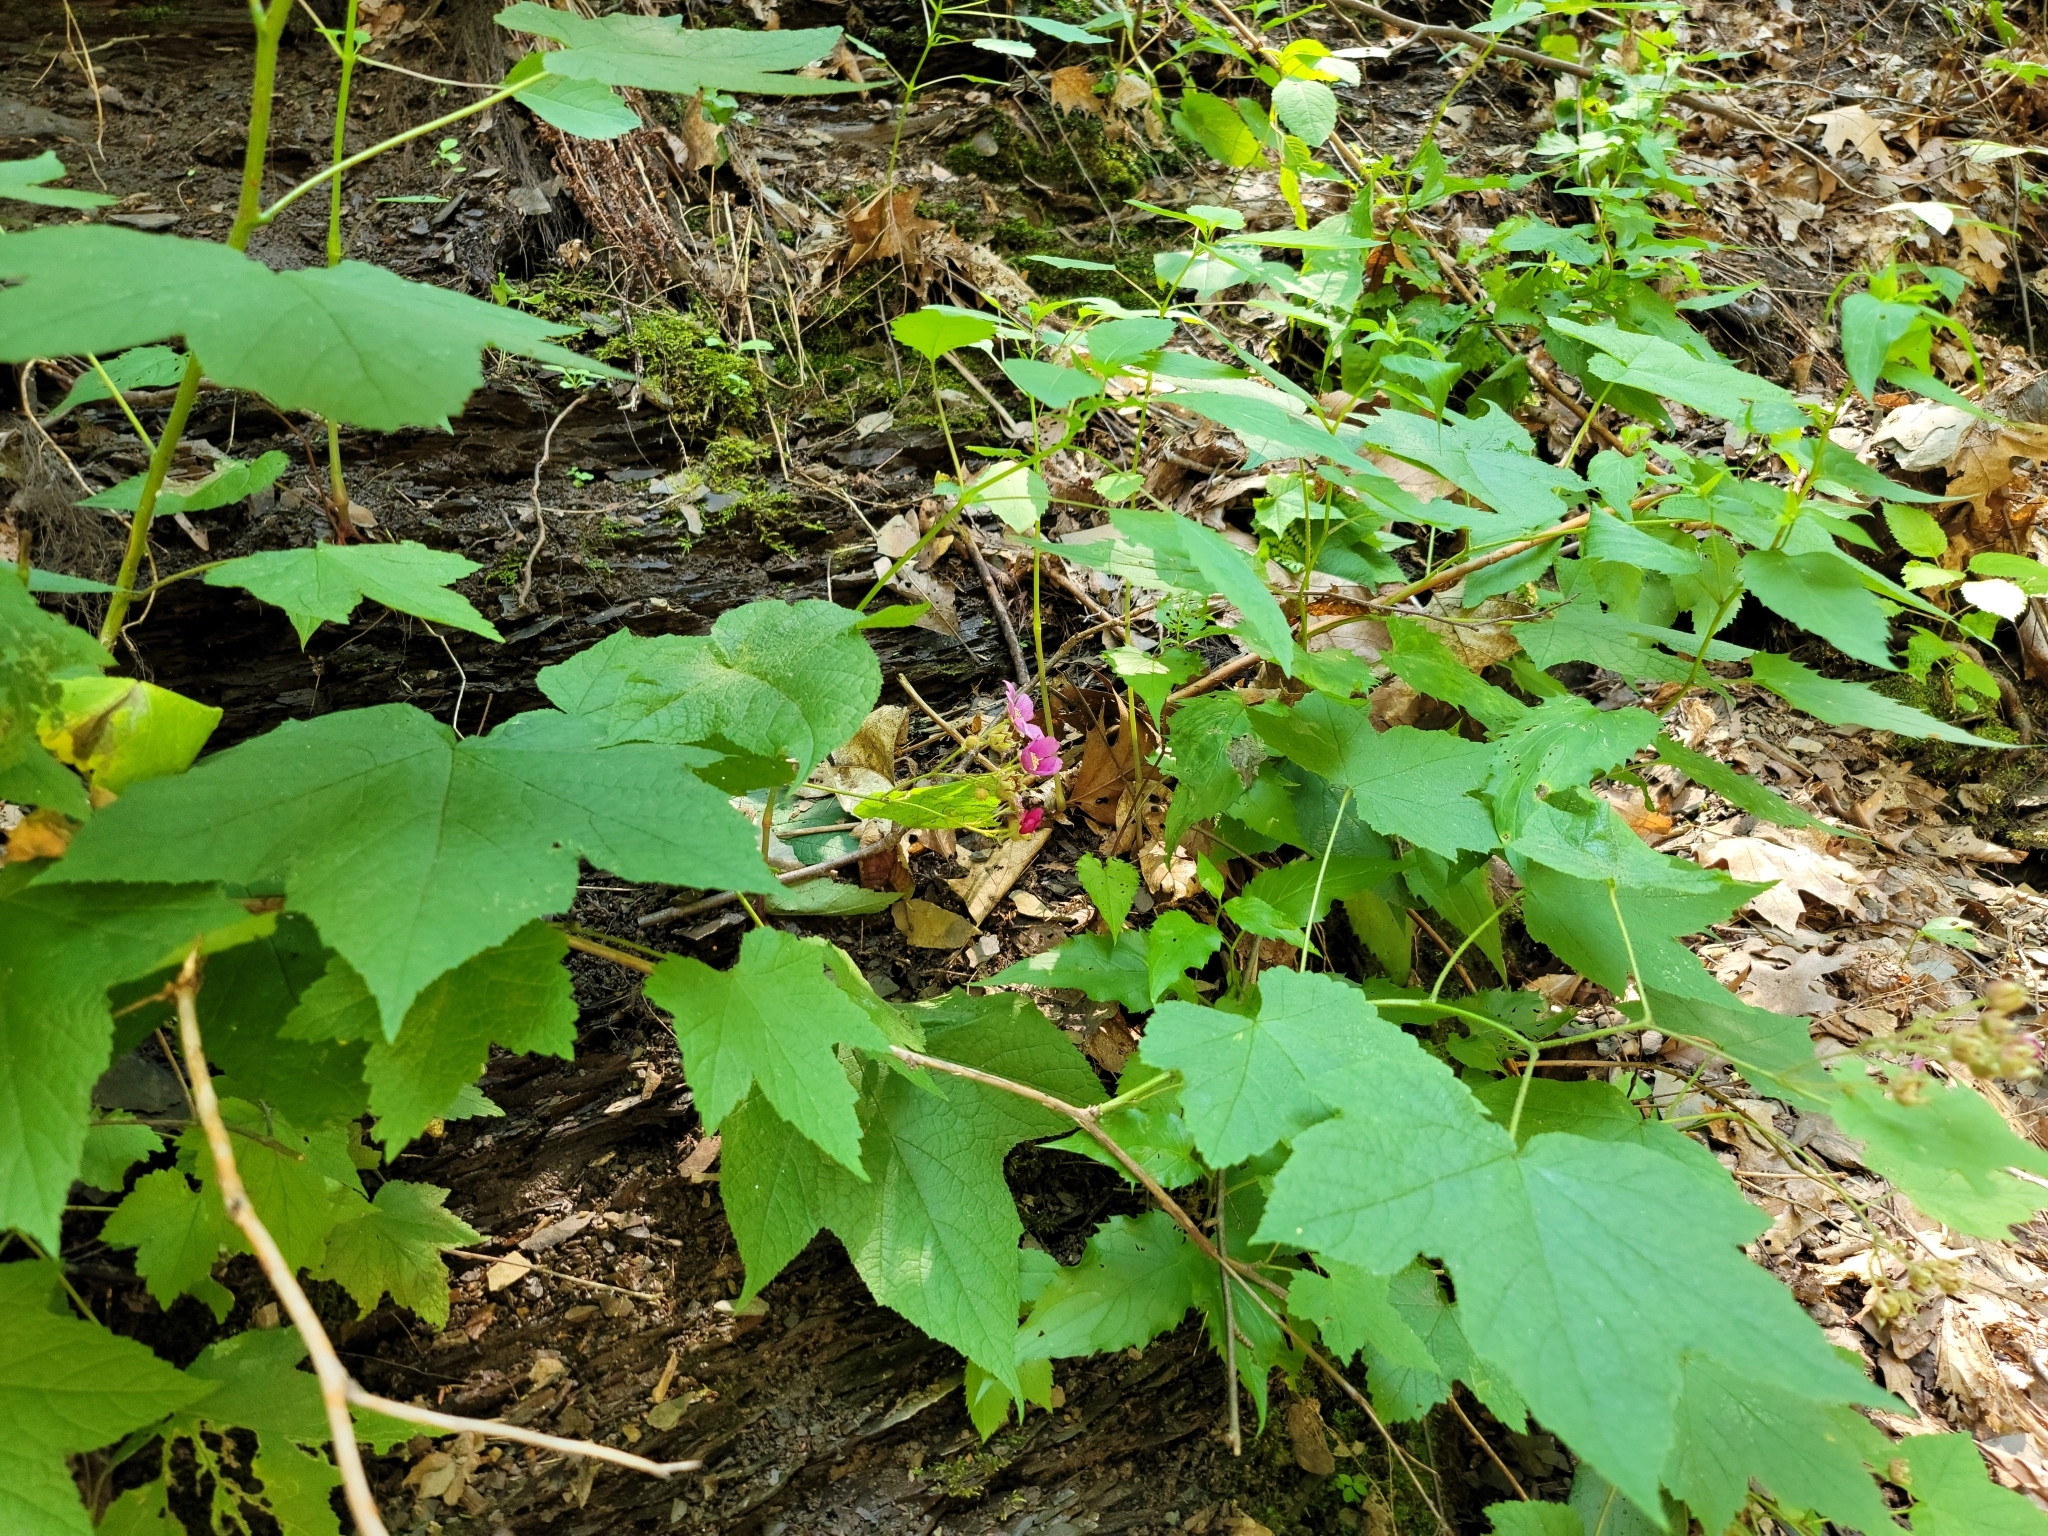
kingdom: Plantae
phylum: Tracheophyta
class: Magnoliopsida
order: Rosales
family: Rosaceae
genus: Rubus
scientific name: Rubus odoratus
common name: Purple-flowered raspberry
